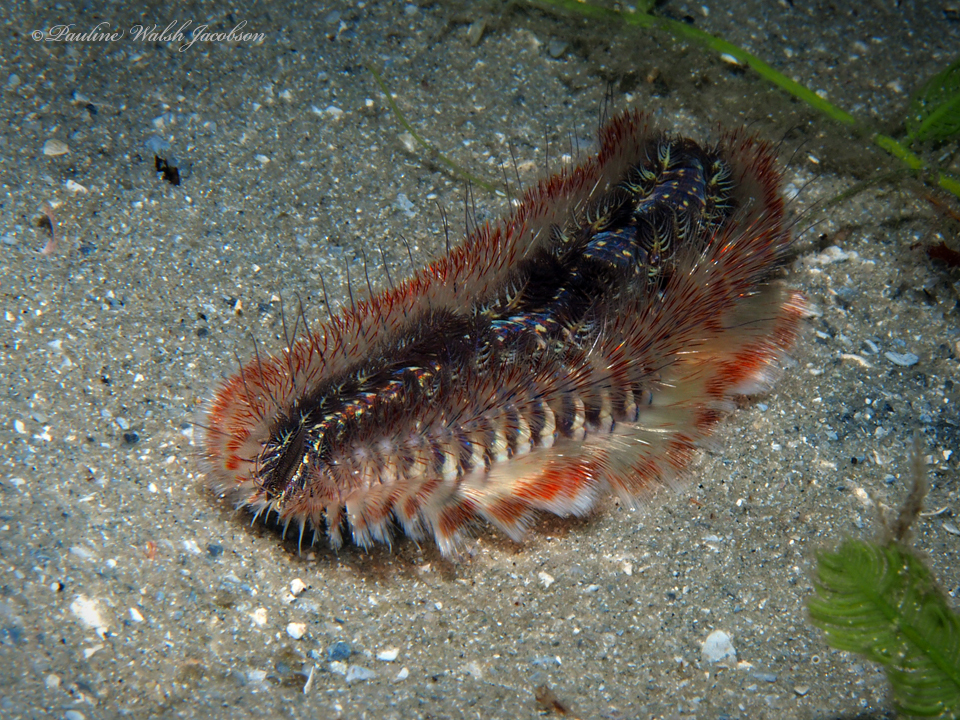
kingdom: Animalia
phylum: Annelida
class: Polychaeta
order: Amphinomida
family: Amphinomidae
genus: Chloeia
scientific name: Chloeia euglochis
